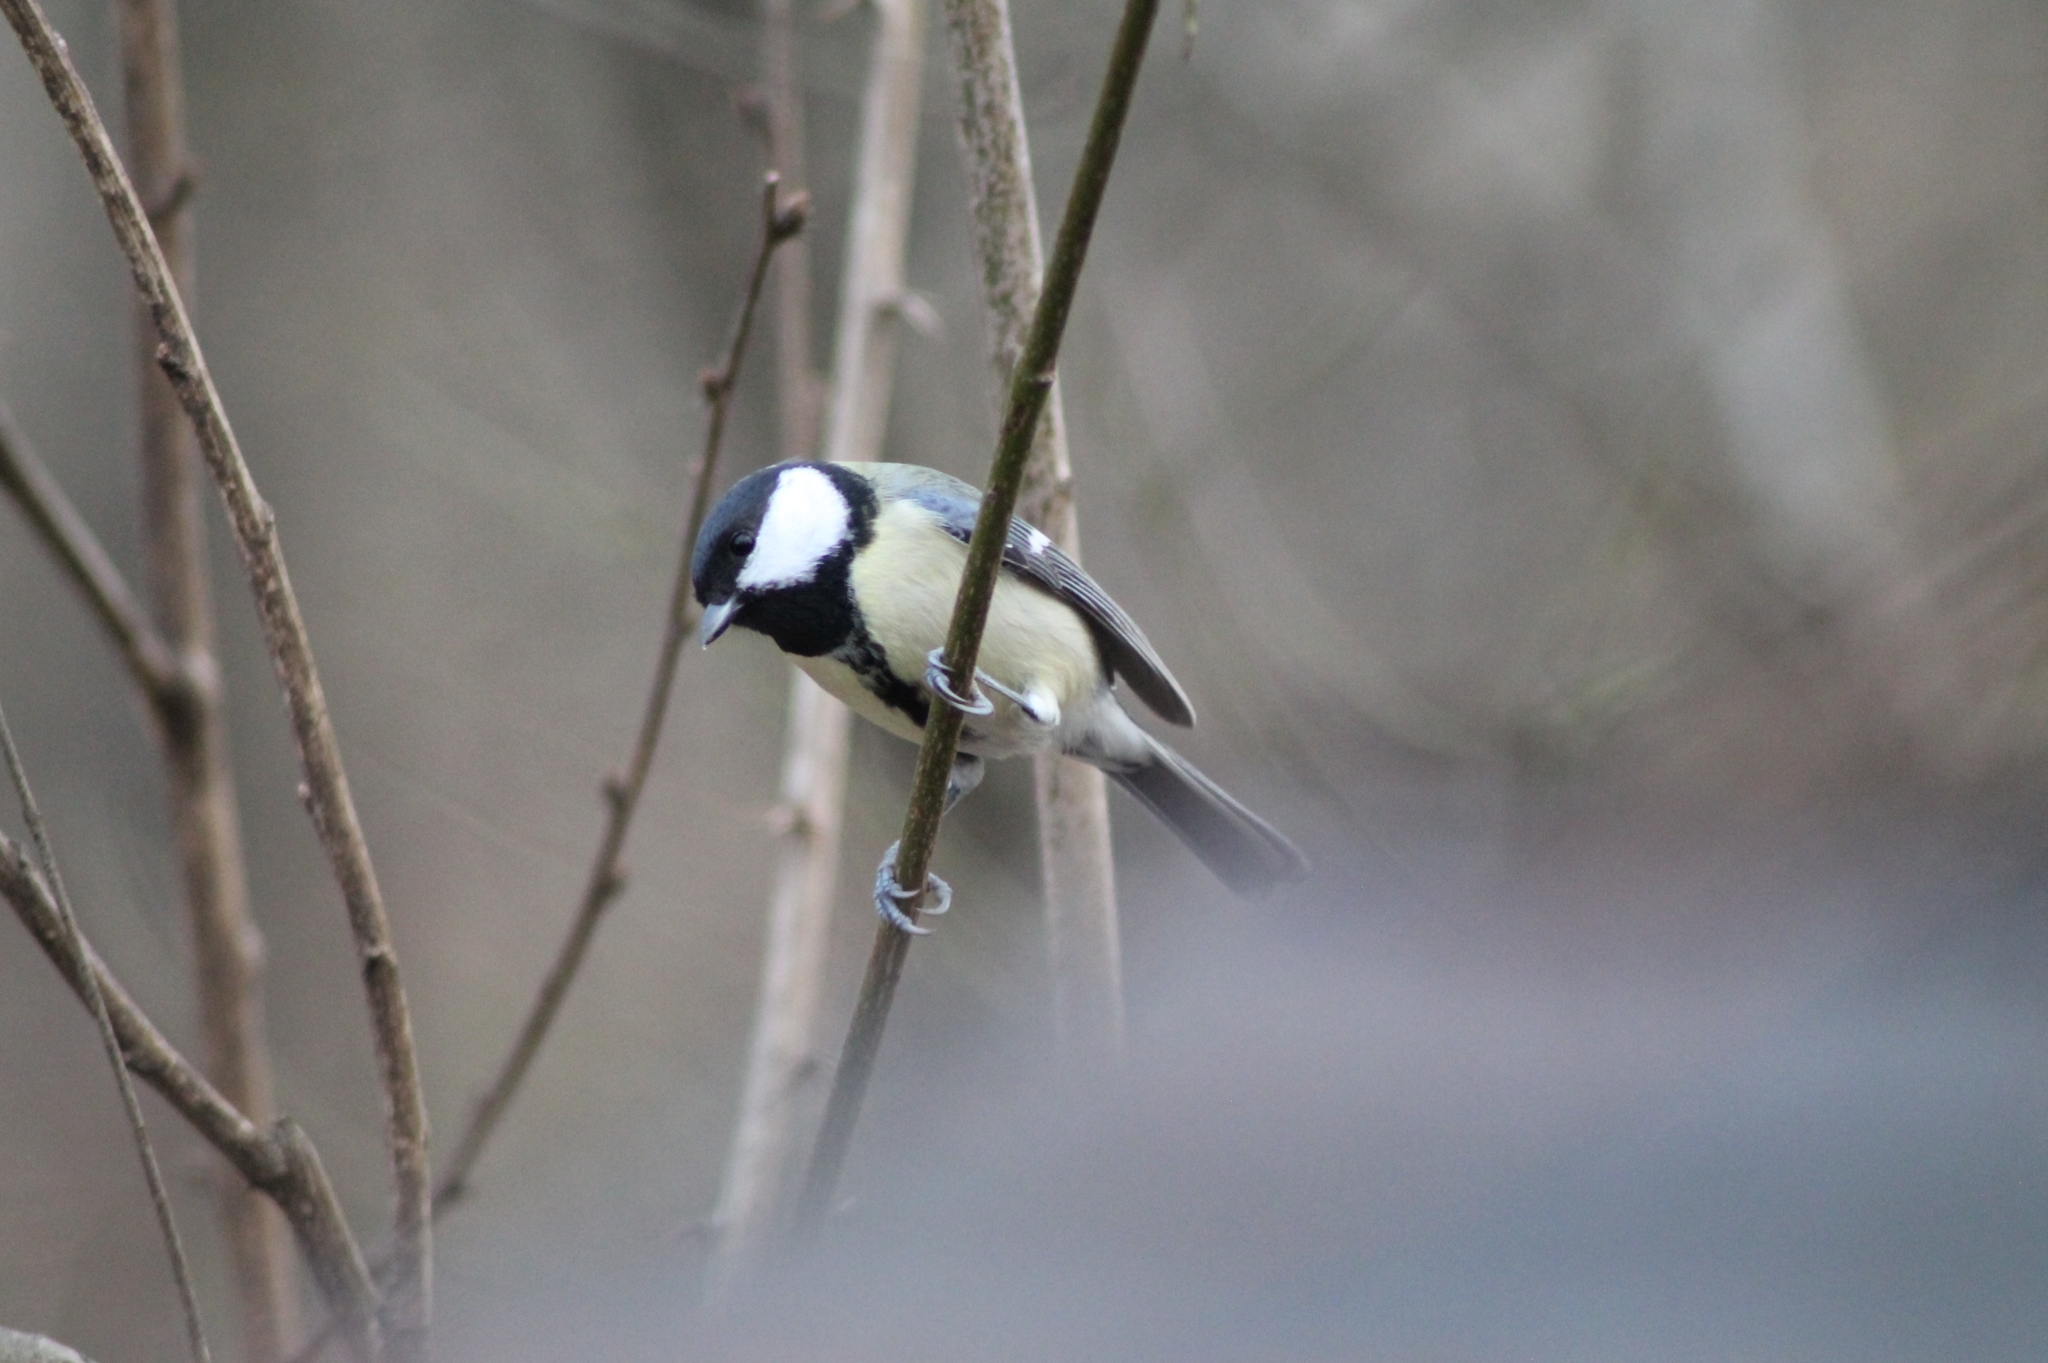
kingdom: Animalia
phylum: Chordata
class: Aves
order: Passeriformes
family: Paridae
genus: Parus
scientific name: Parus major
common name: Great tit
